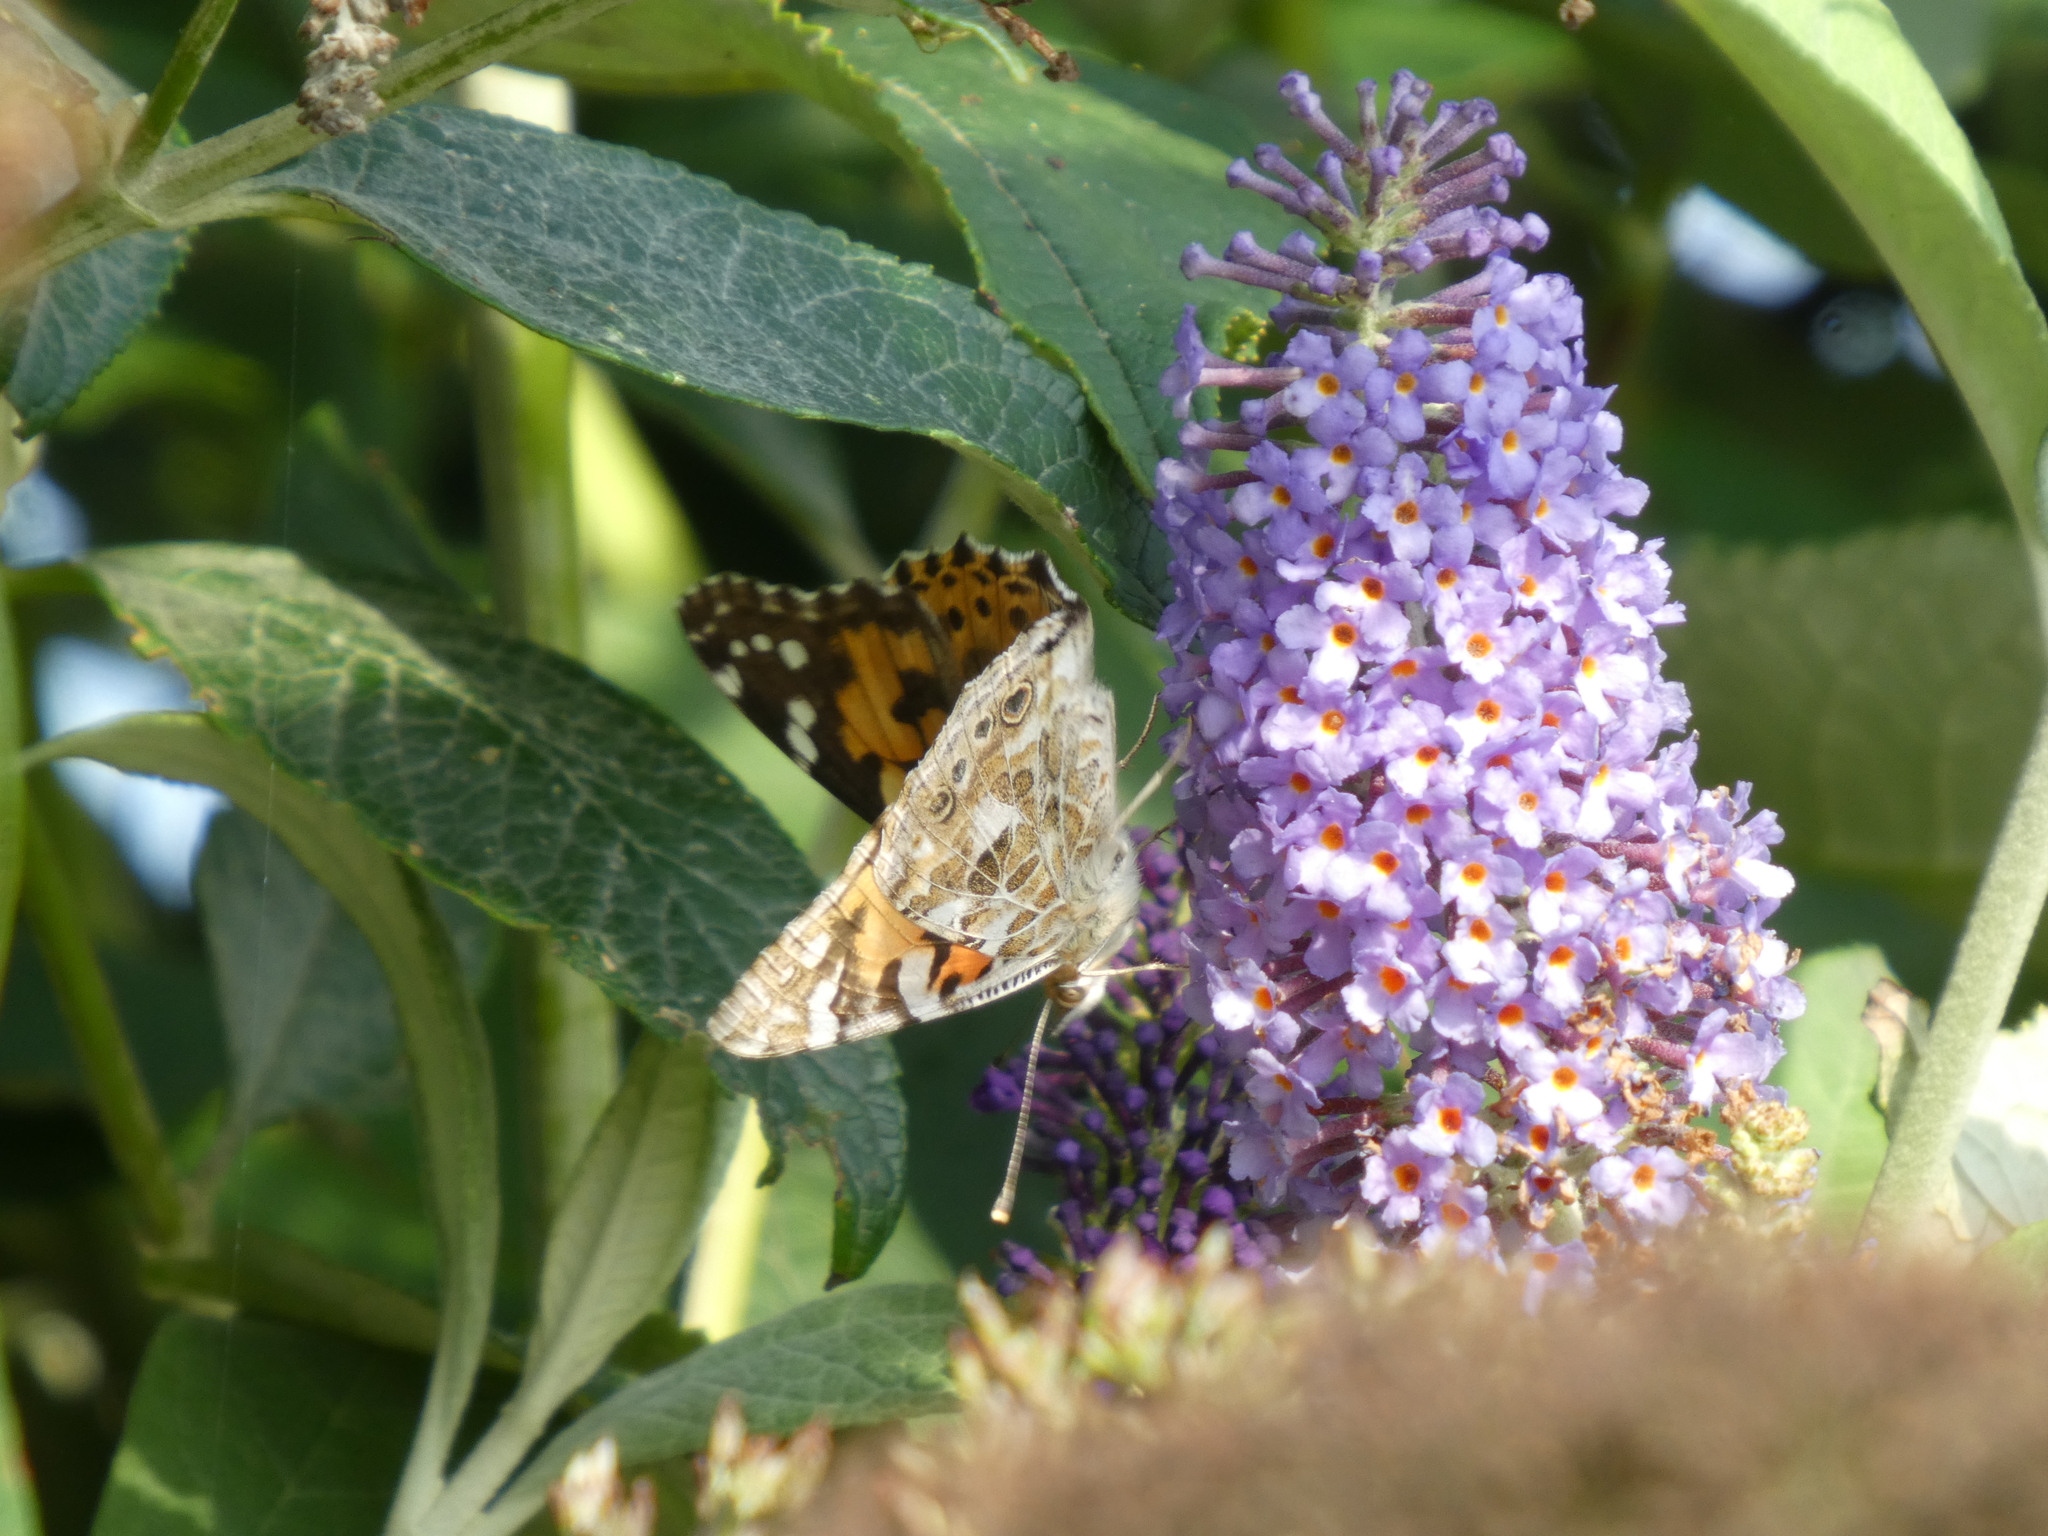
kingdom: Animalia
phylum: Arthropoda
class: Insecta
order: Lepidoptera
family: Nymphalidae
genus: Vanessa
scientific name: Vanessa cardui
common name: Painted lady
